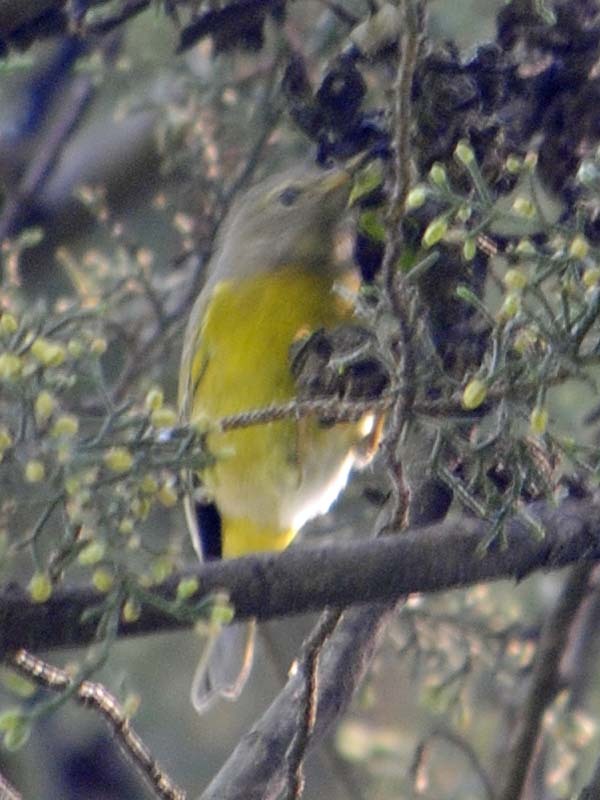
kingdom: Animalia
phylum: Chordata
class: Aves
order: Passeriformes
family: Parulidae
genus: Leiothlypis
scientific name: Leiothlypis ruficapilla
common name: Nashville warbler
